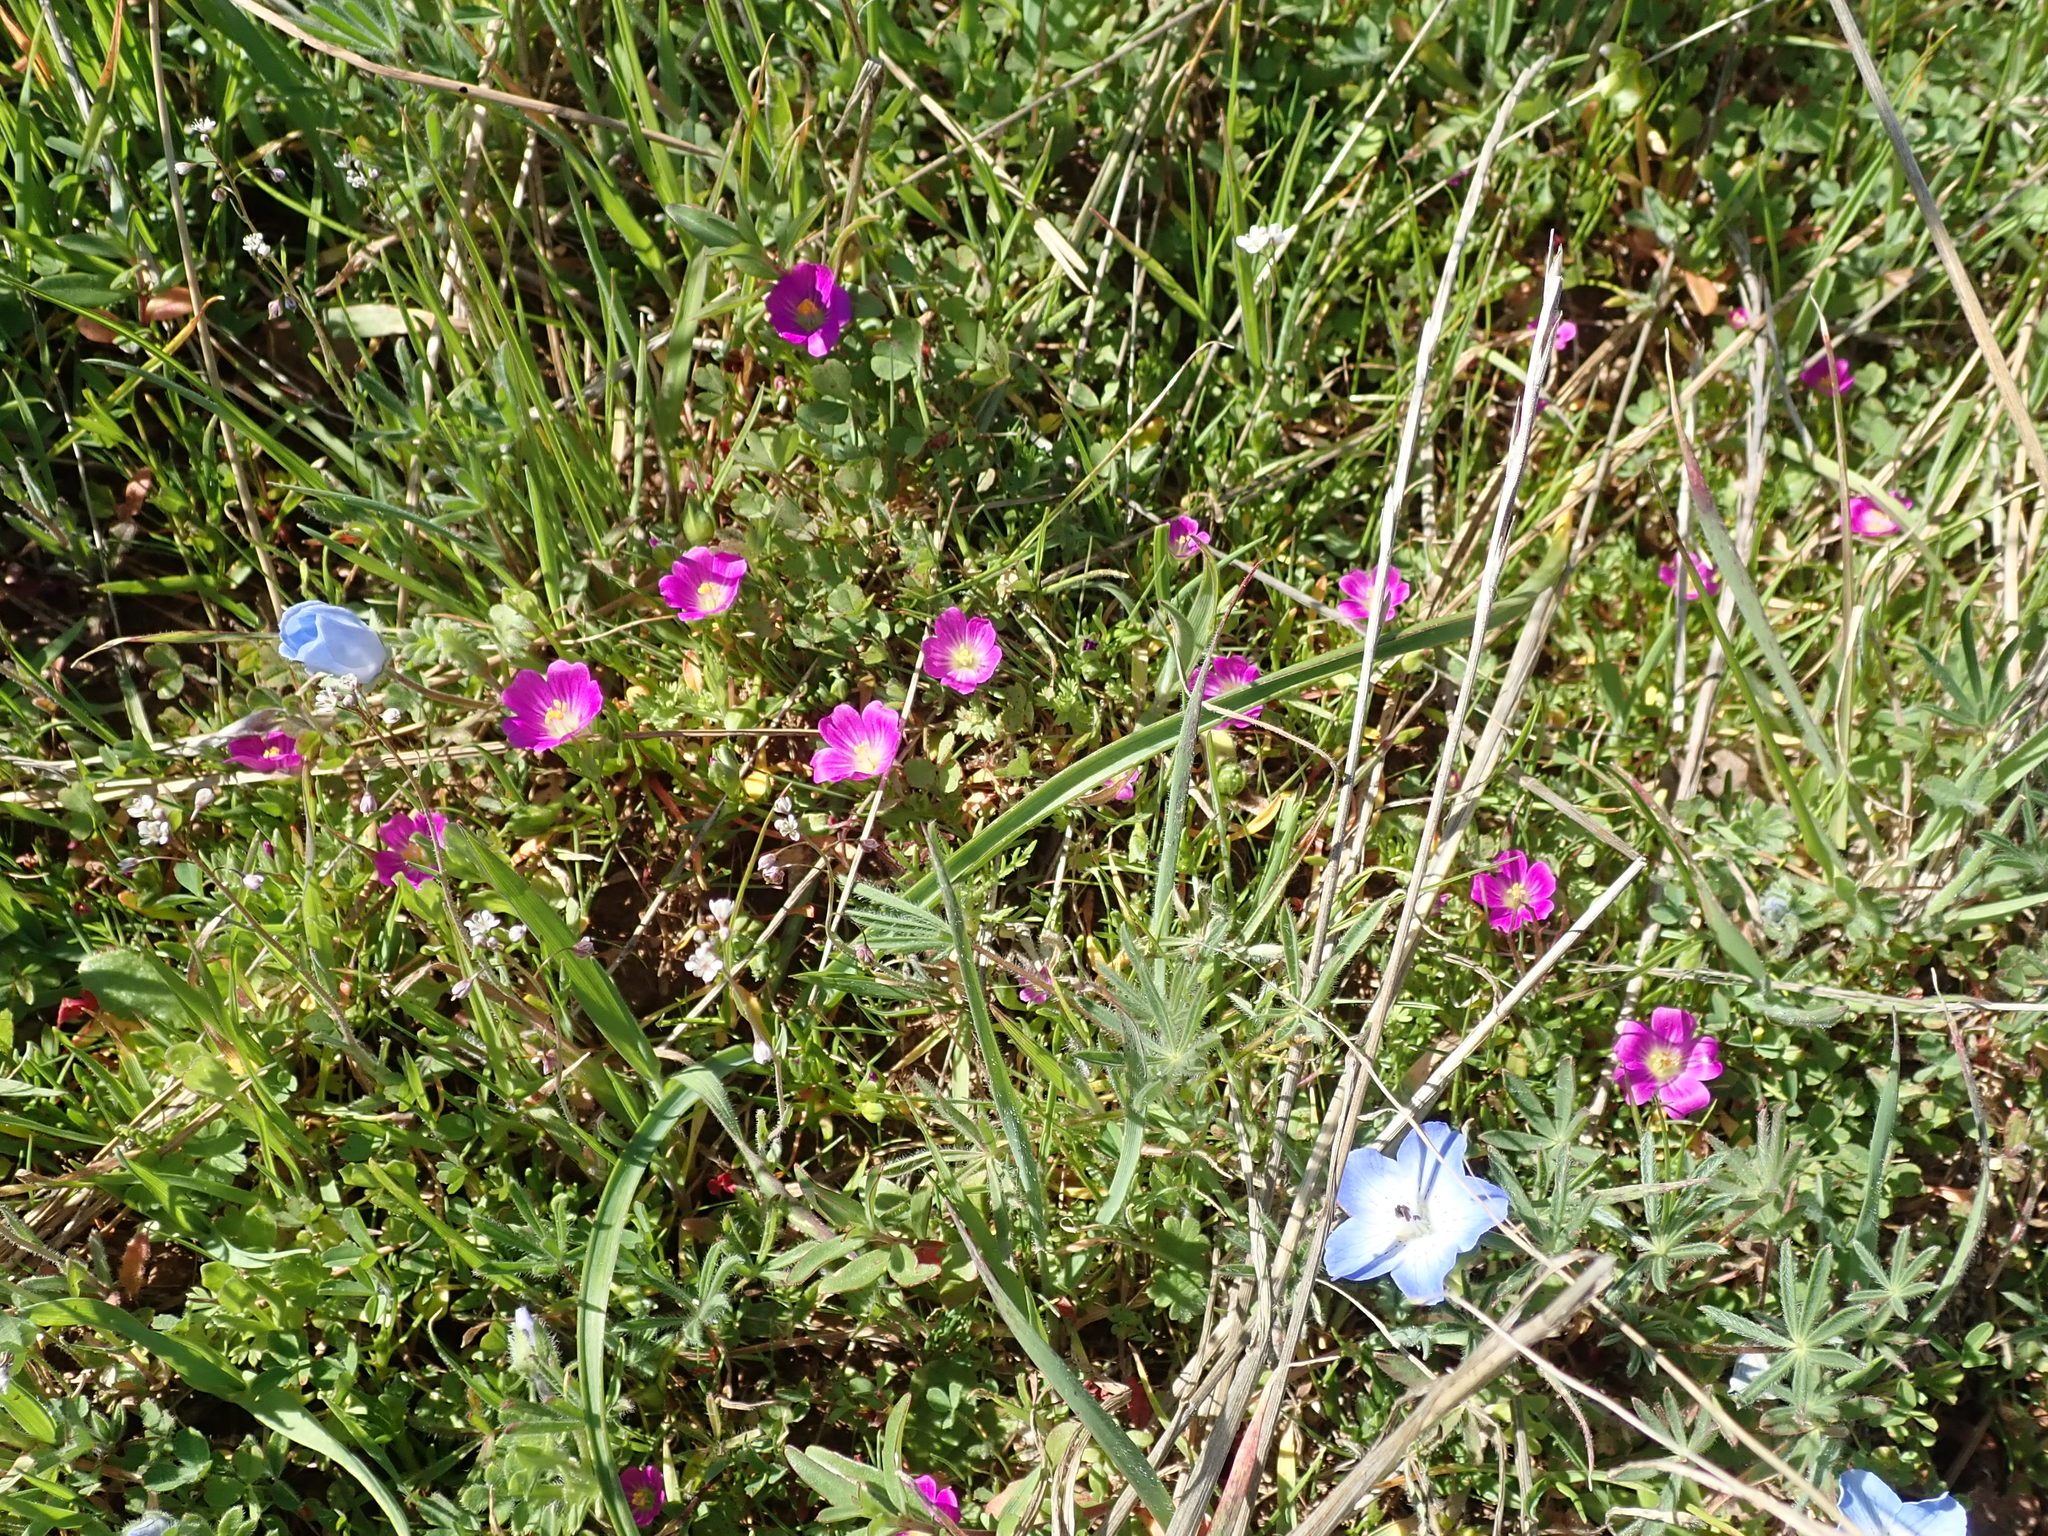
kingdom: Plantae
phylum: Tracheophyta
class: Magnoliopsida
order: Caryophyllales
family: Montiaceae
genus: Calandrinia
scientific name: Calandrinia menziesii
